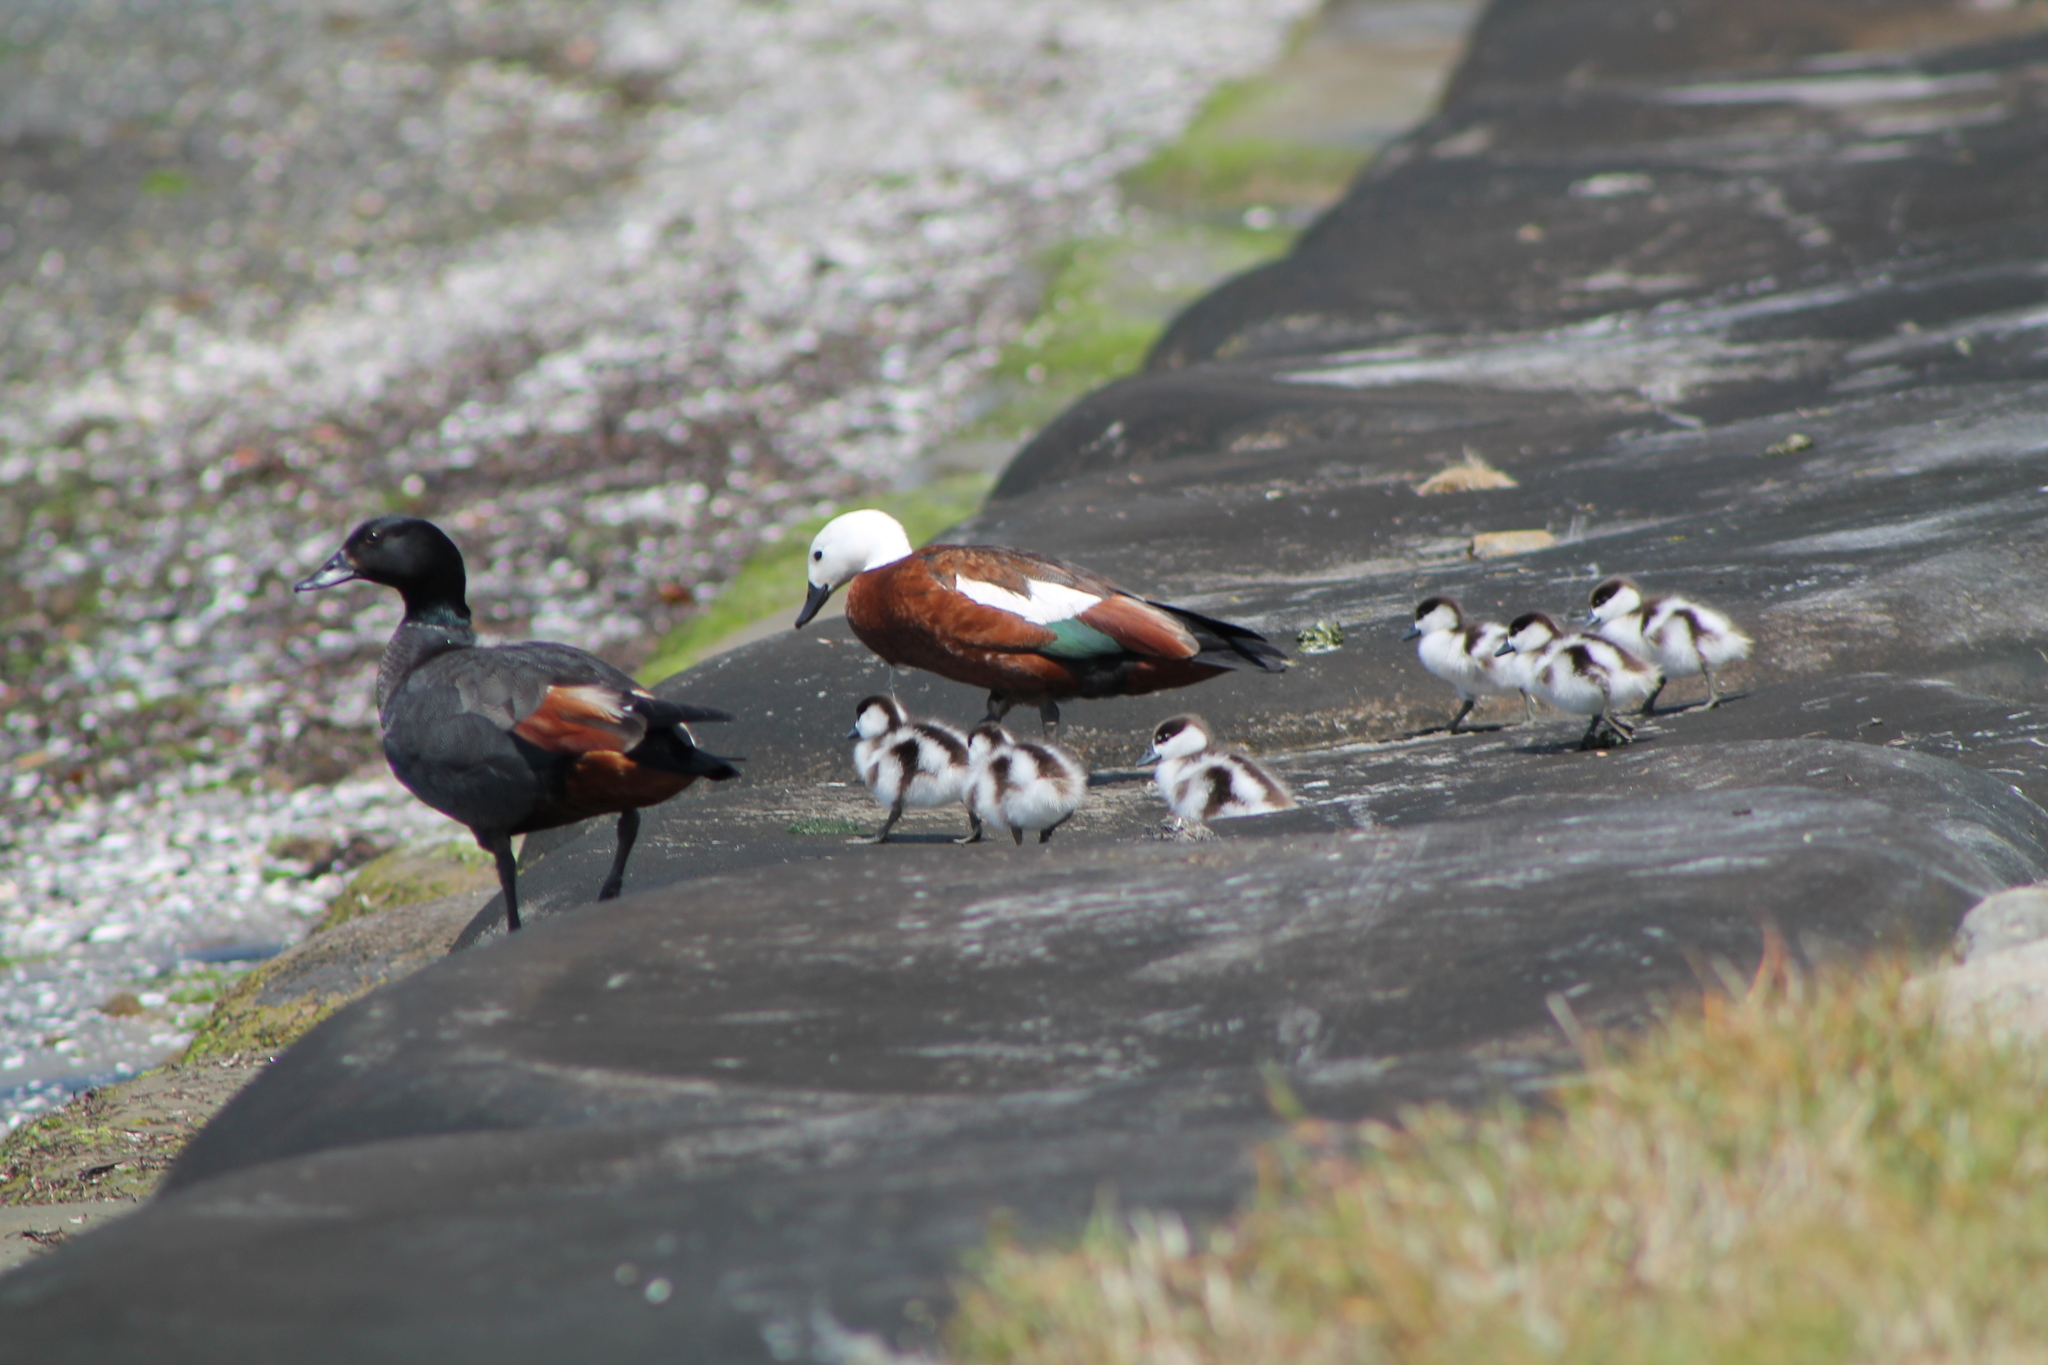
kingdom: Animalia
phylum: Chordata
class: Aves
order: Anseriformes
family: Anatidae
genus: Tadorna
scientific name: Tadorna variegata
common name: Paradise shelduck
